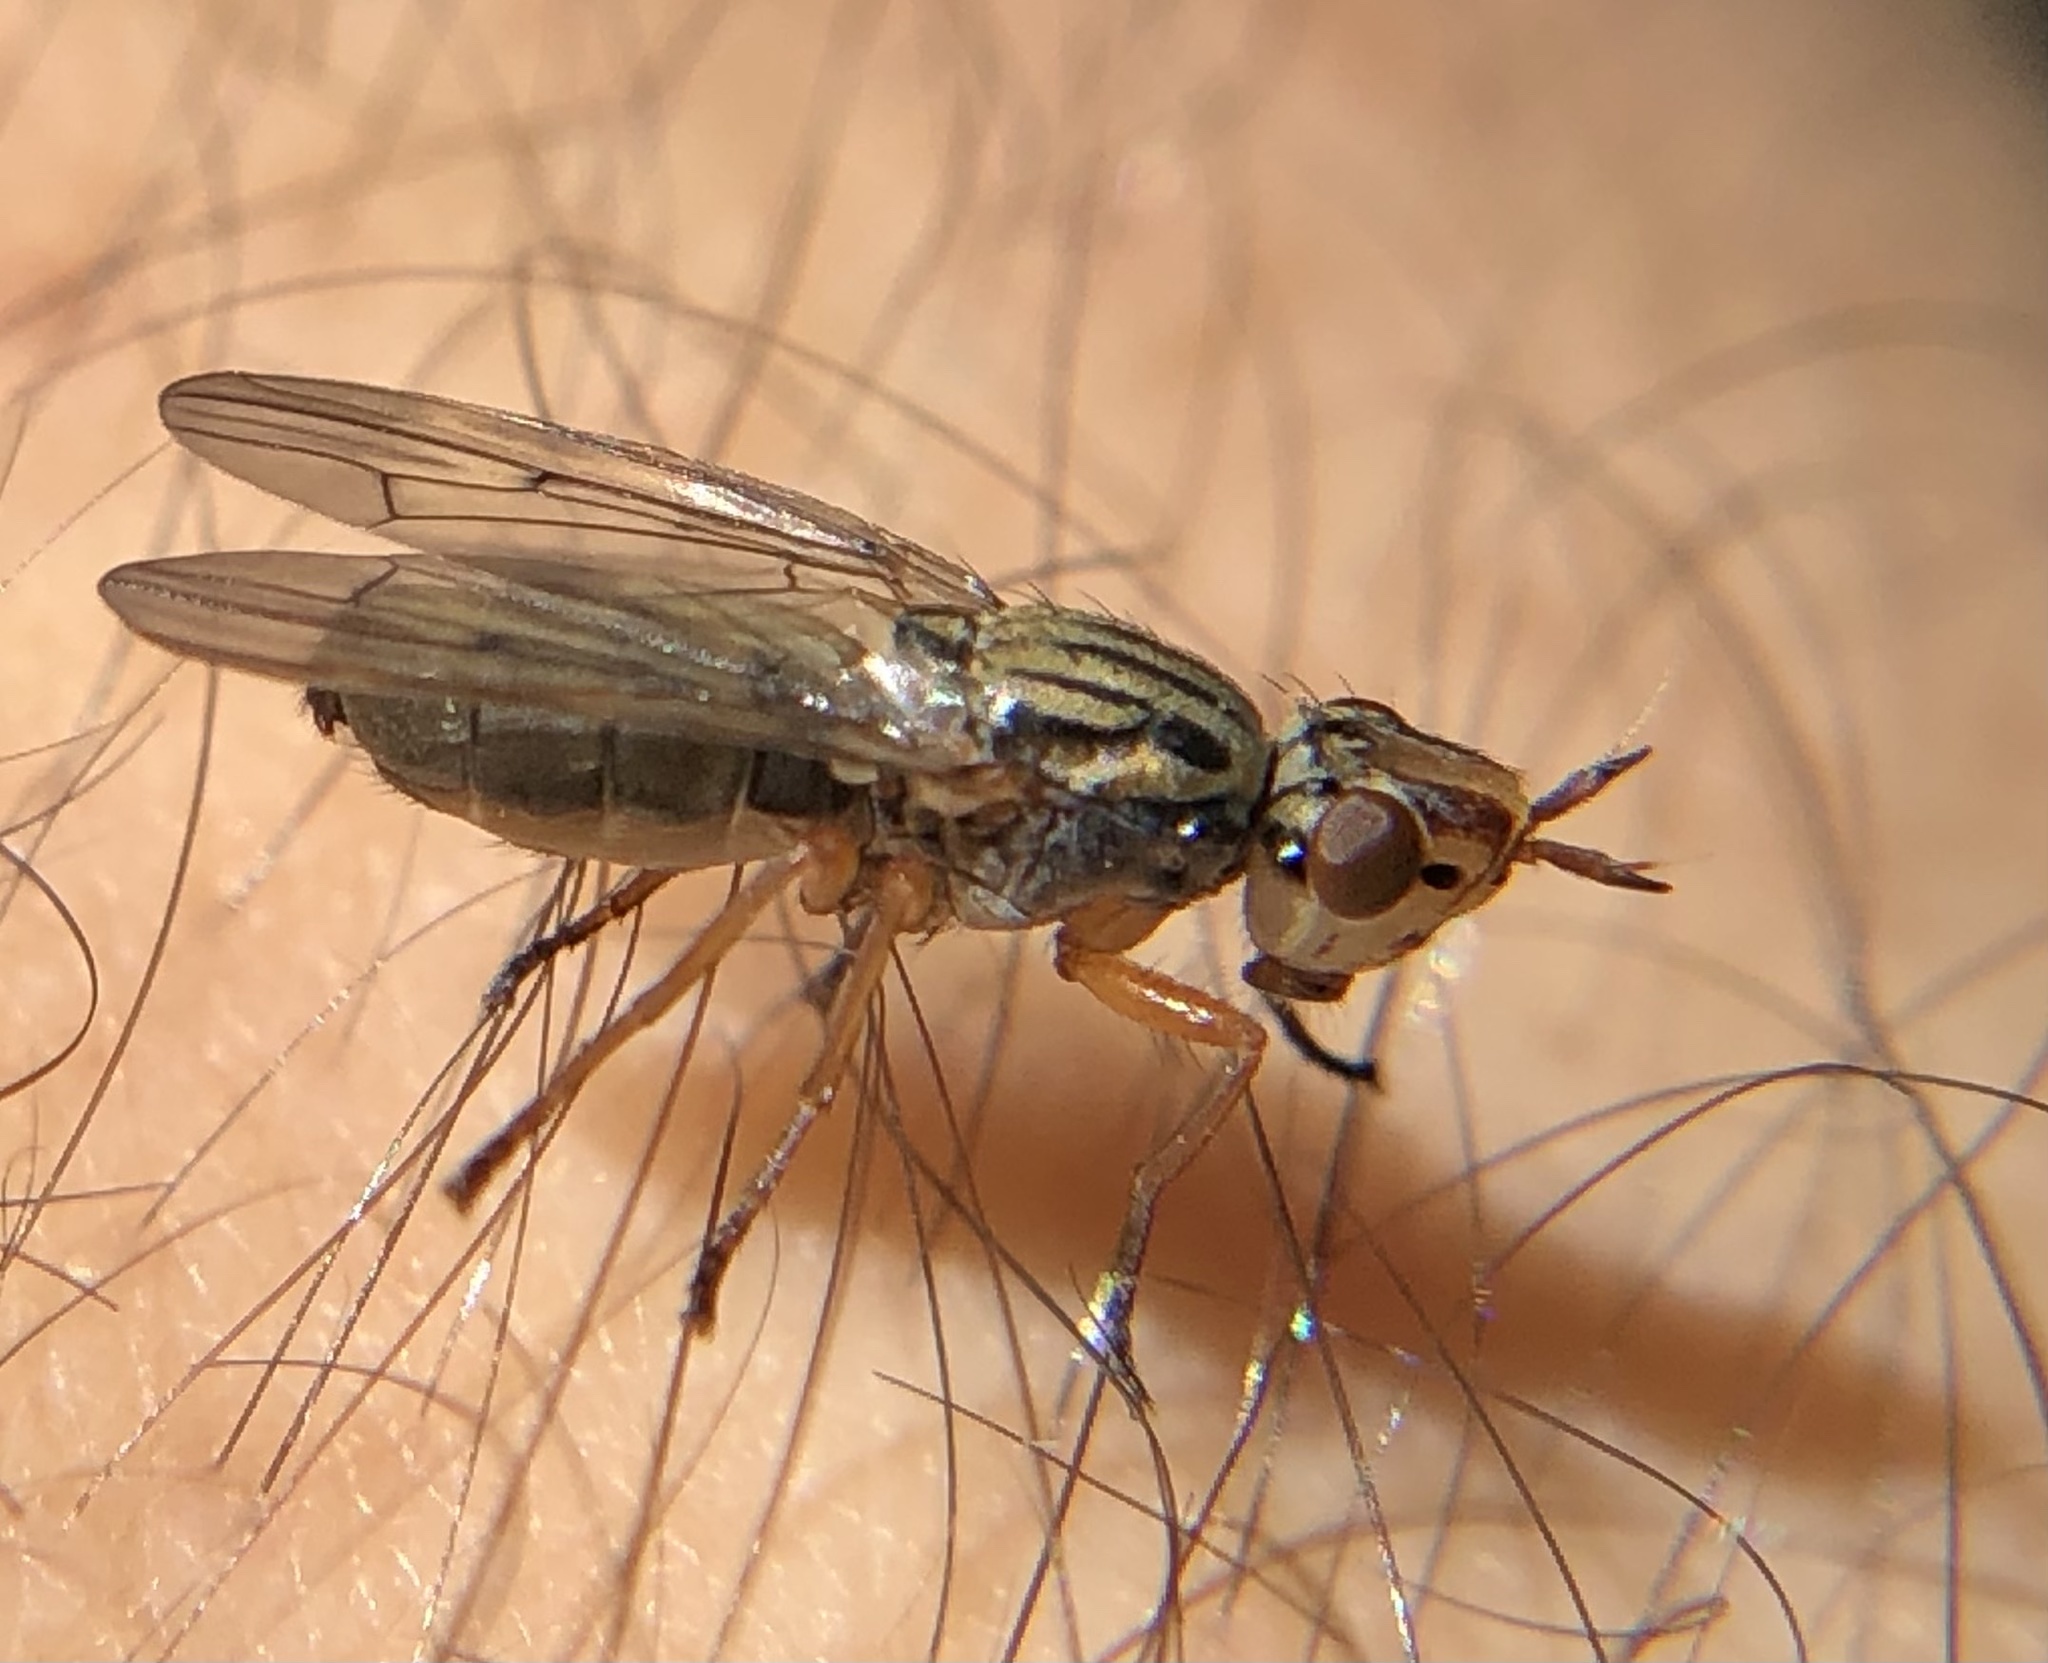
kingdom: Animalia
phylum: Arthropoda
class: Insecta
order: Diptera
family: Ulidiidae
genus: Dorycera
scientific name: Dorycera aquatica
